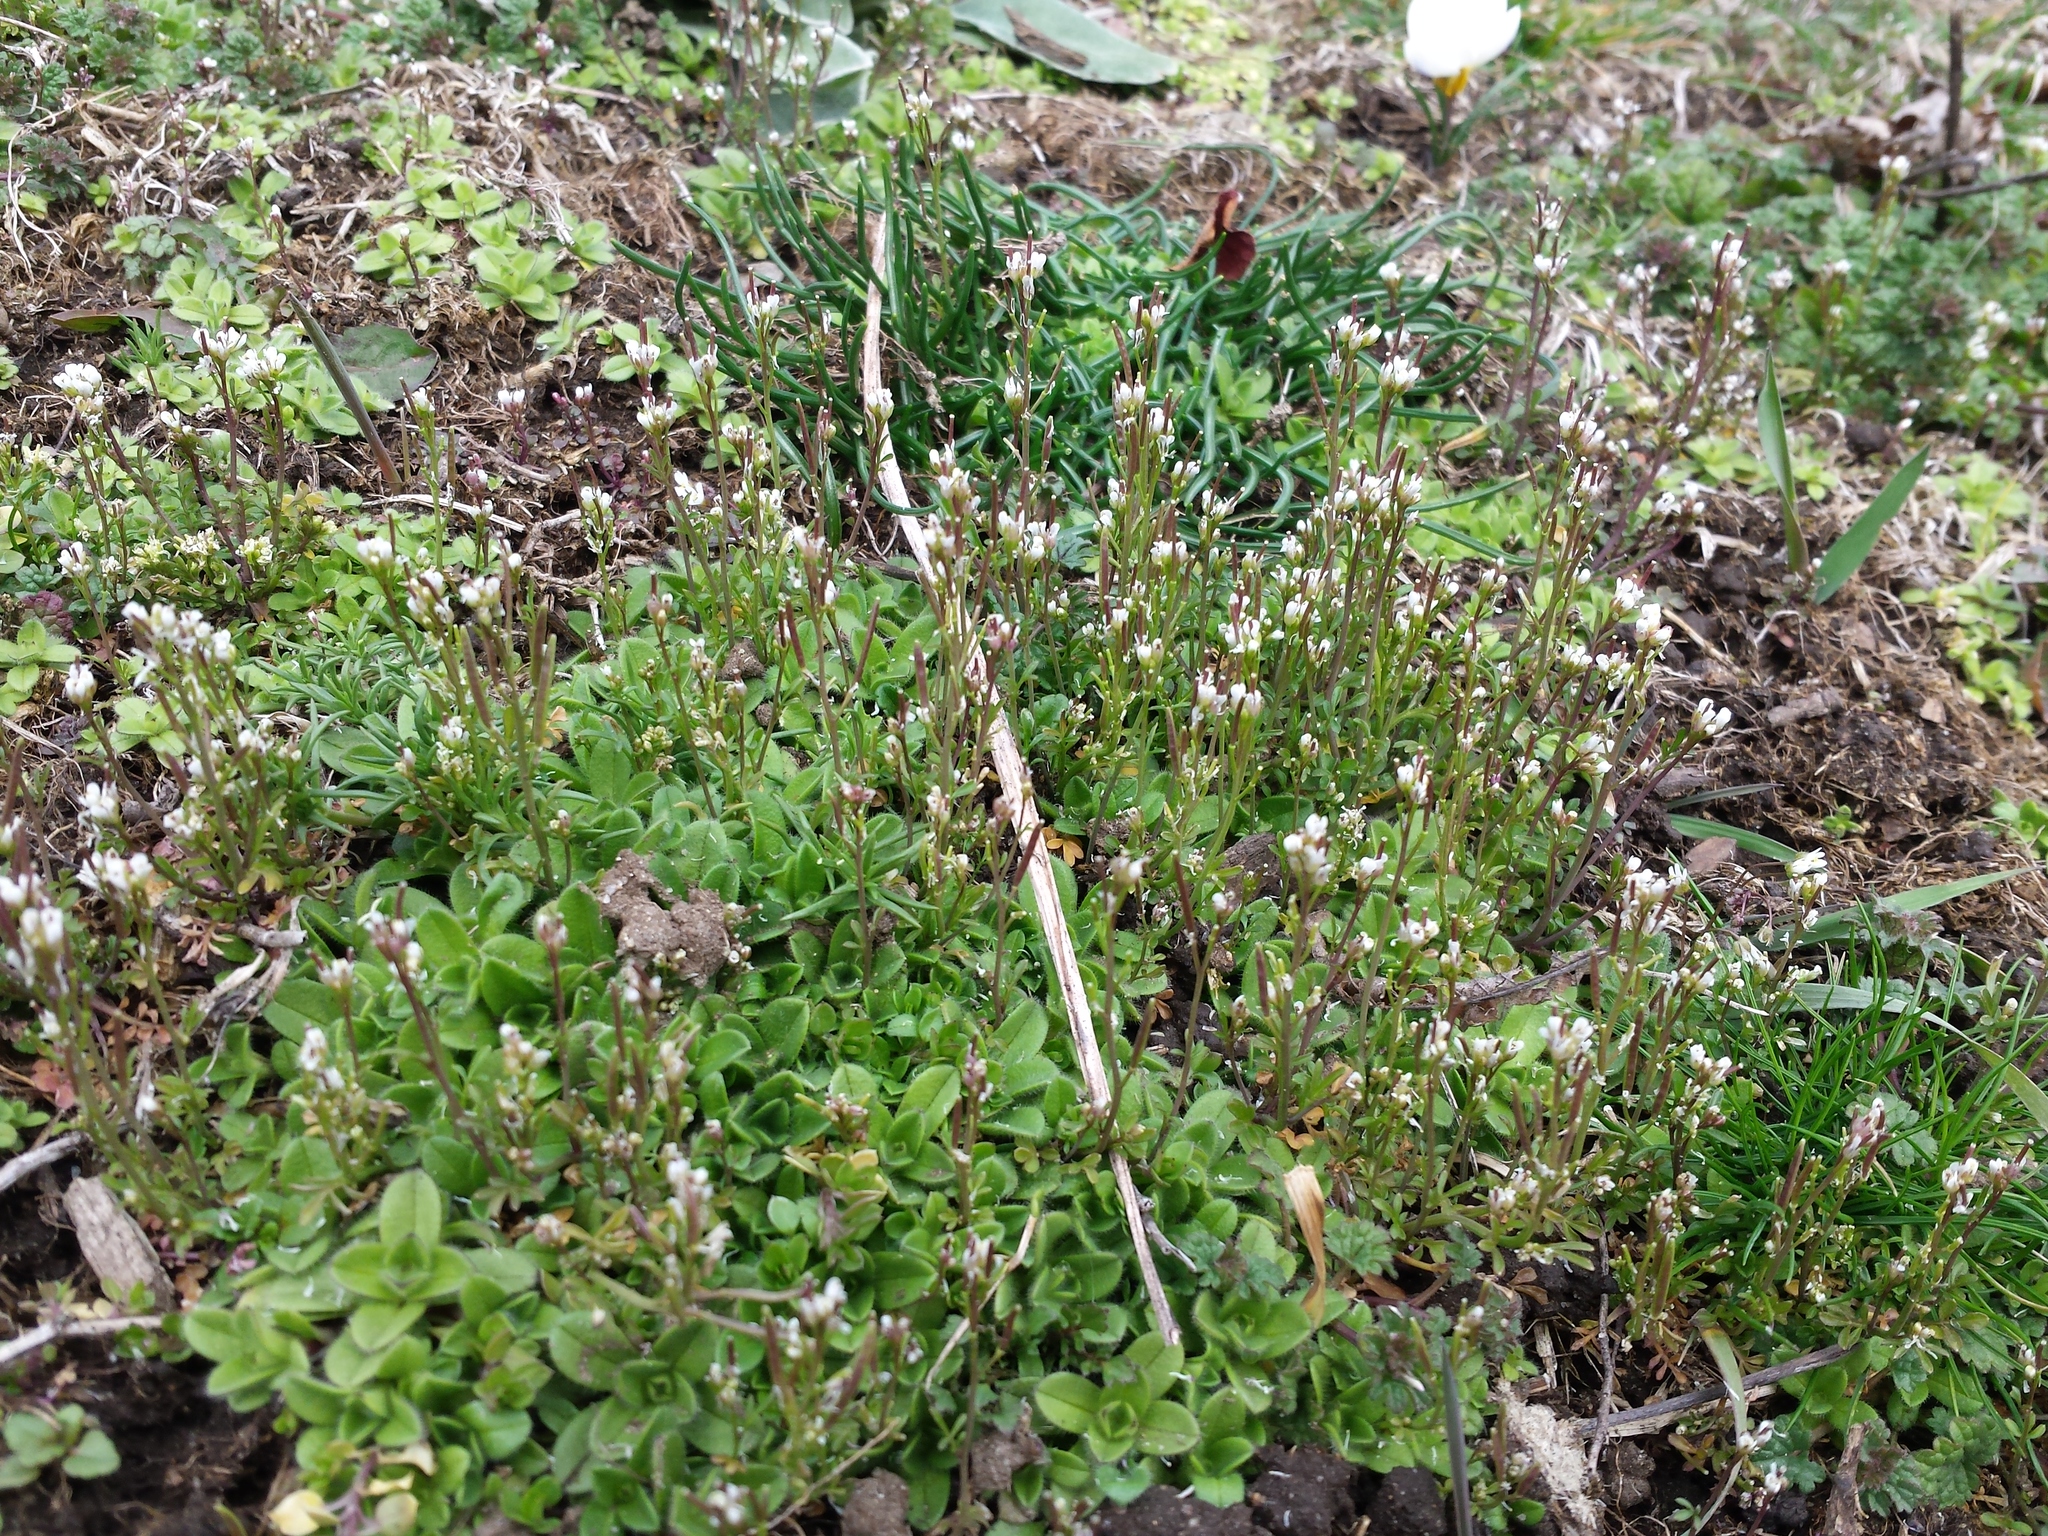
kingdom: Plantae
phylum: Tracheophyta
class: Magnoliopsida
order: Brassicales
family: Brassicaceae
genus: Cardamine
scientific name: Cardamine hirsuta
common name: Hairy bittercress
